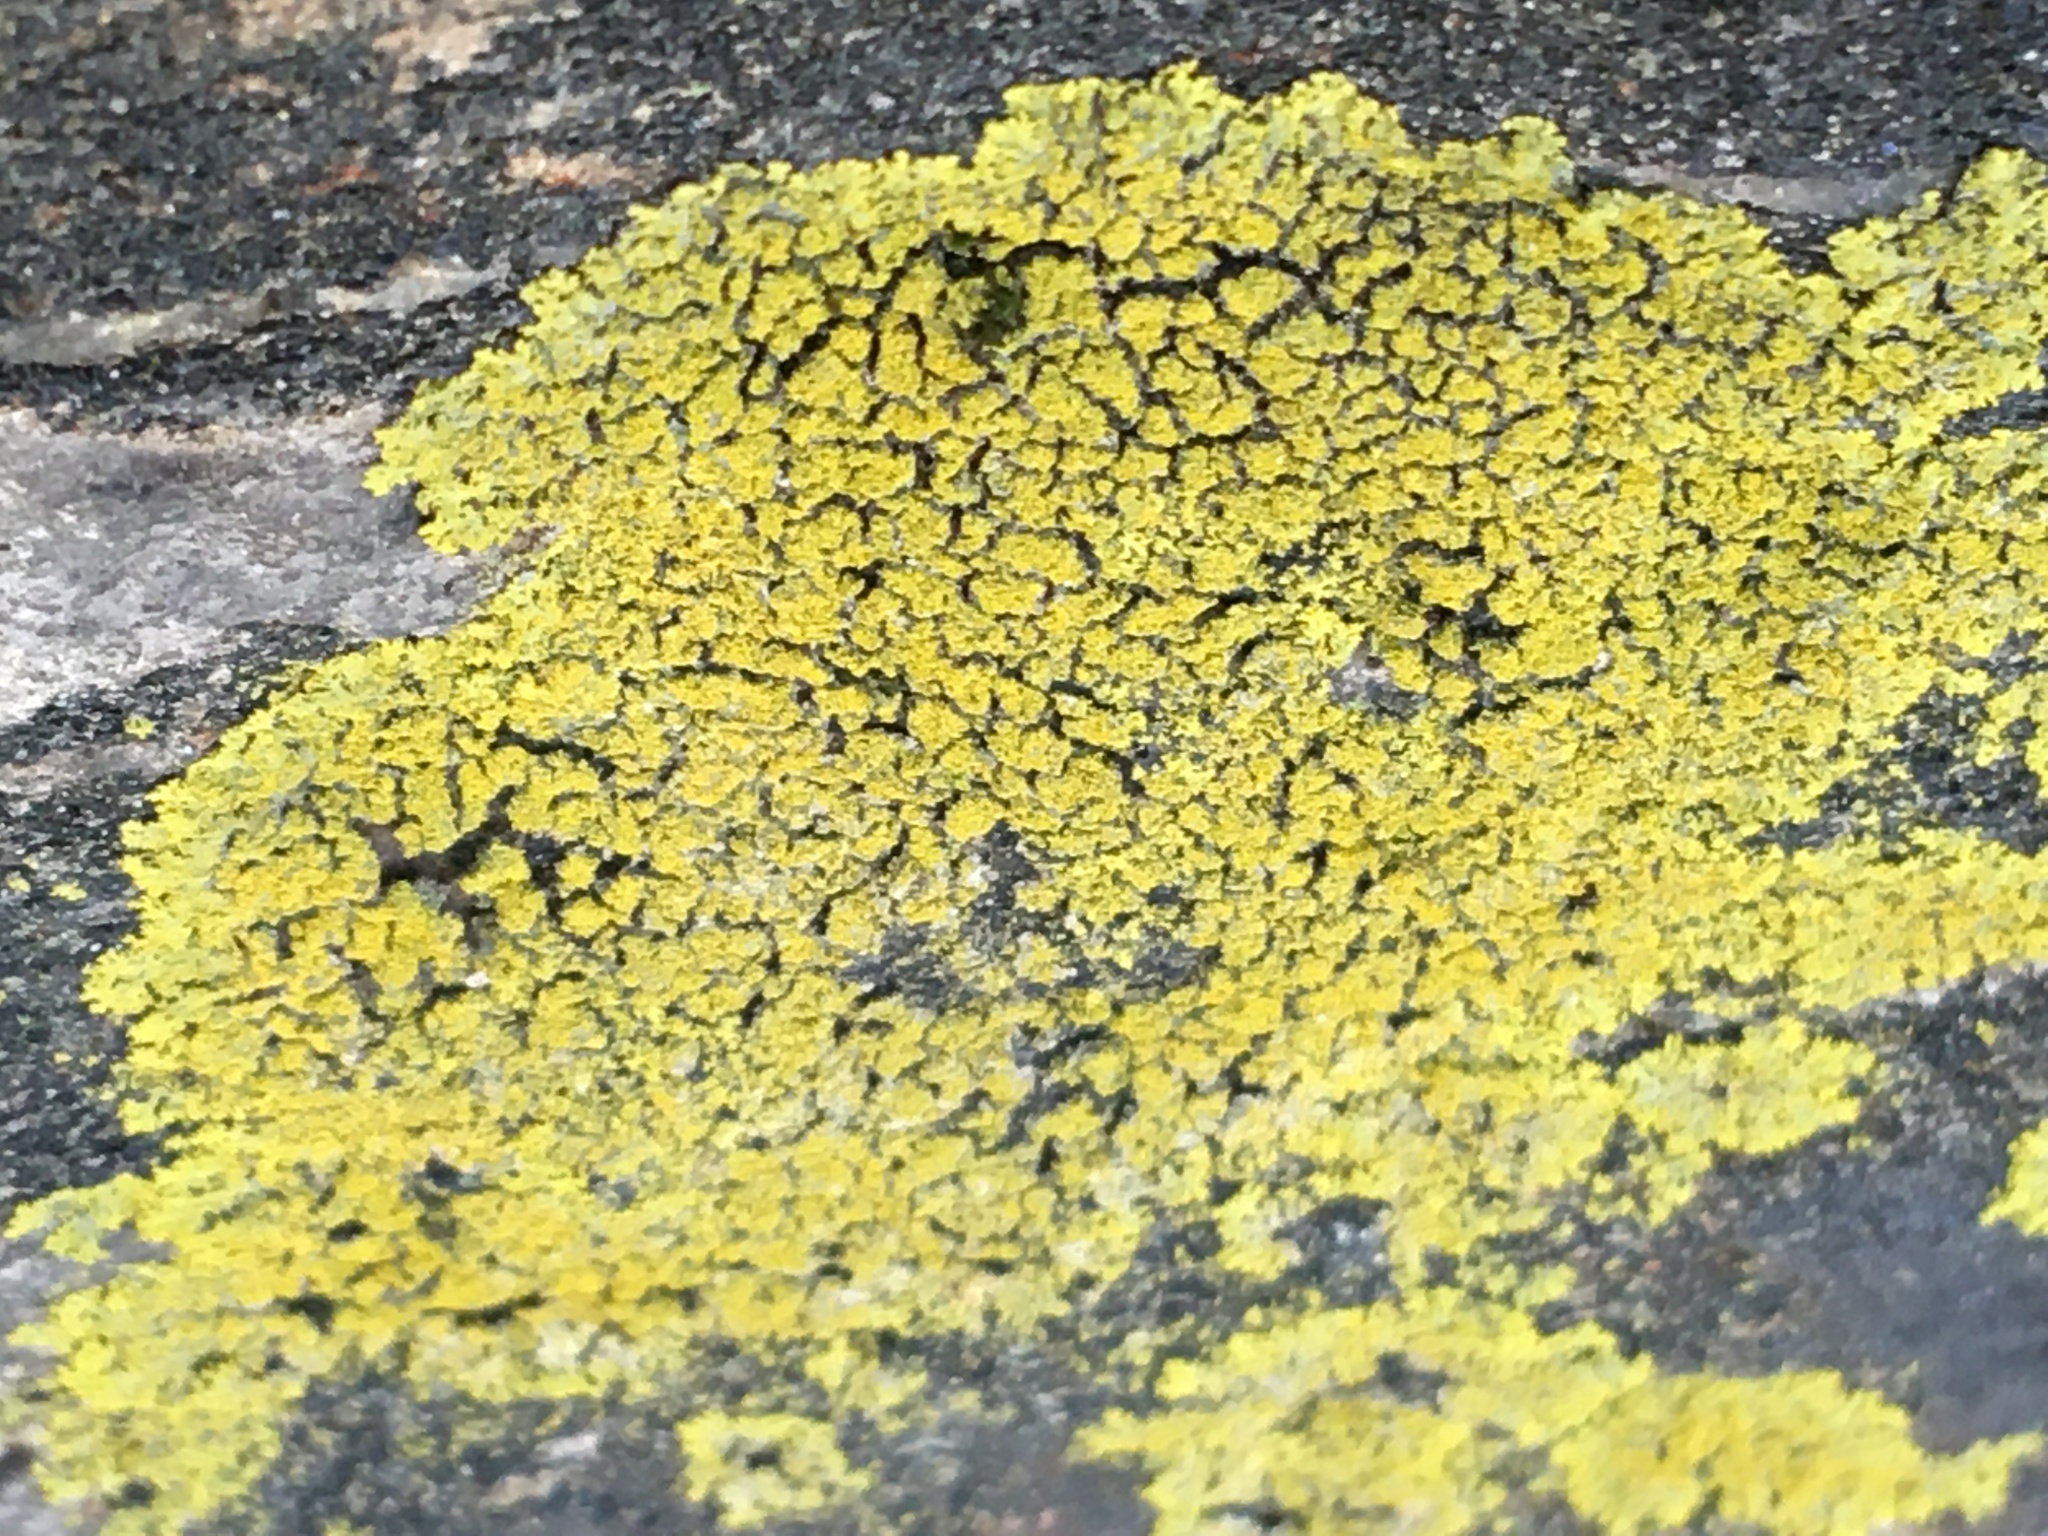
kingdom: Fungi
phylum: Ascomycota
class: Candelariomycetes
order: Candelariales
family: Candelariaceae
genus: Candelaria
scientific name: Candelaria concolor
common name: Candleflame lichen
